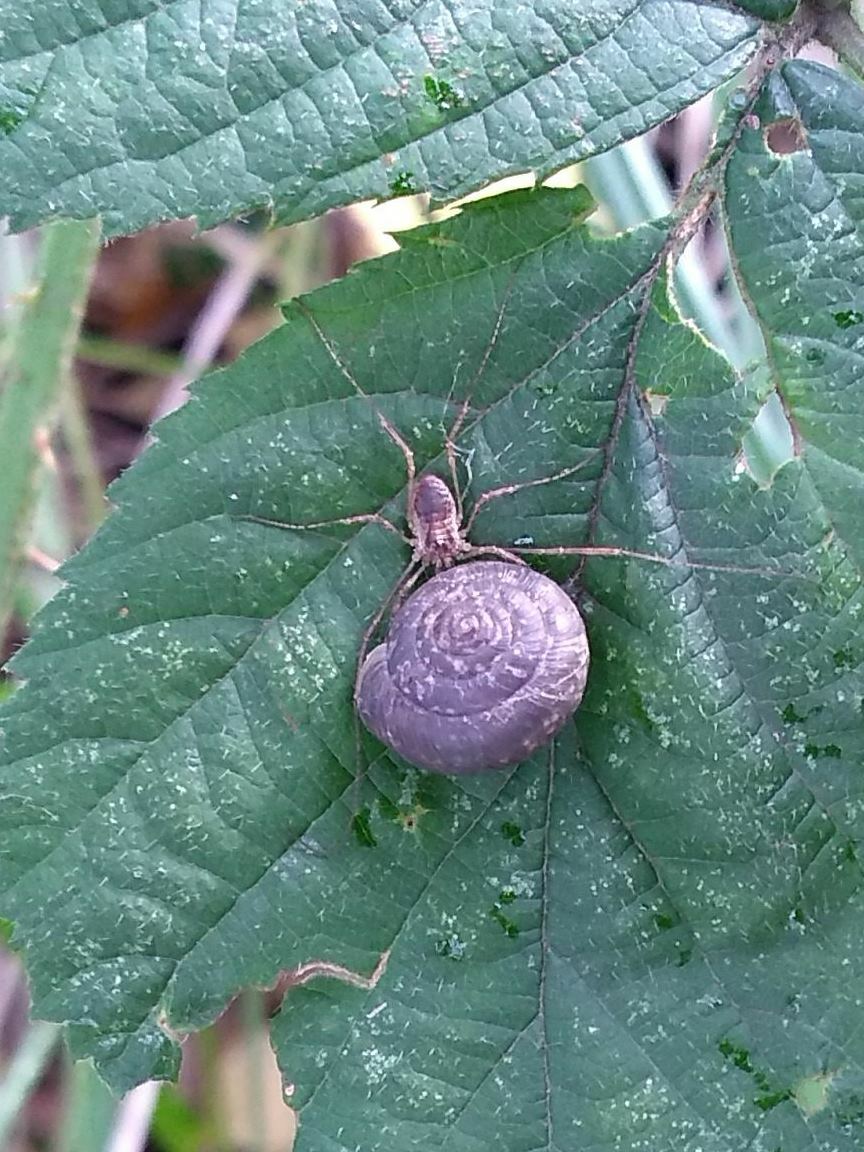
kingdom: Animalia
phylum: Mollusca
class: Gastropoda
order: Stylommatophora
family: Hygromiidae
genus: Trochulus
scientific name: Trochulus striolatus
